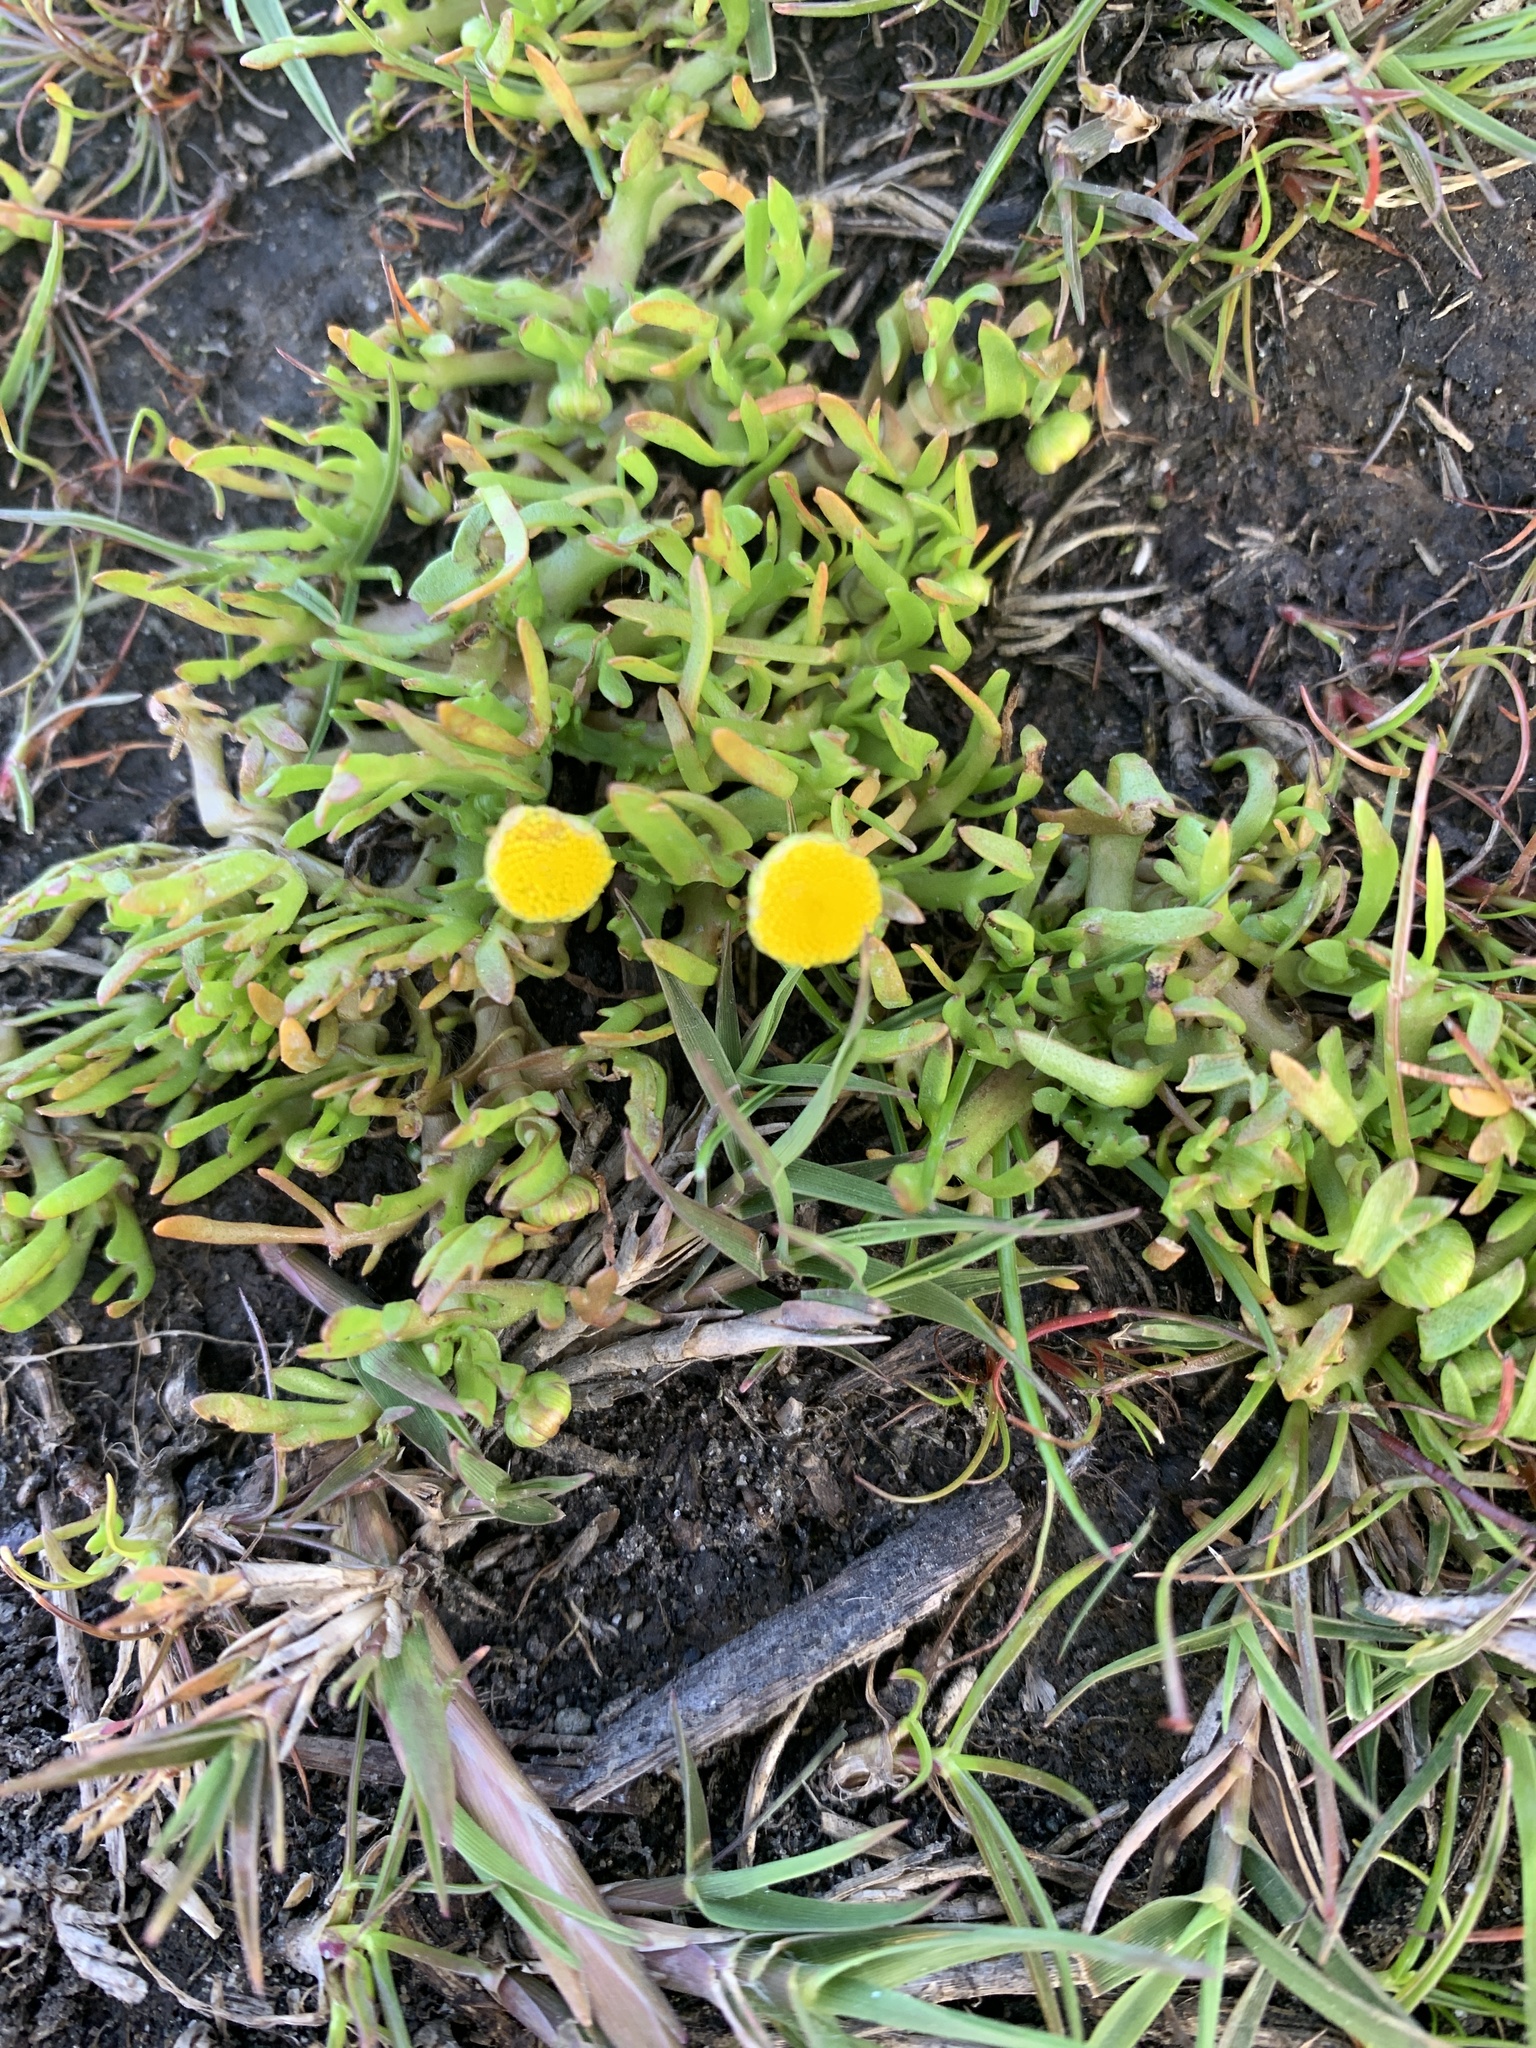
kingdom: Plantae
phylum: Tracheophyta
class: Magnoliopsida
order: Asterales
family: Asteraceae
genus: Cotula
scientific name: Cotula coronopifolia
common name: Buttonweed
